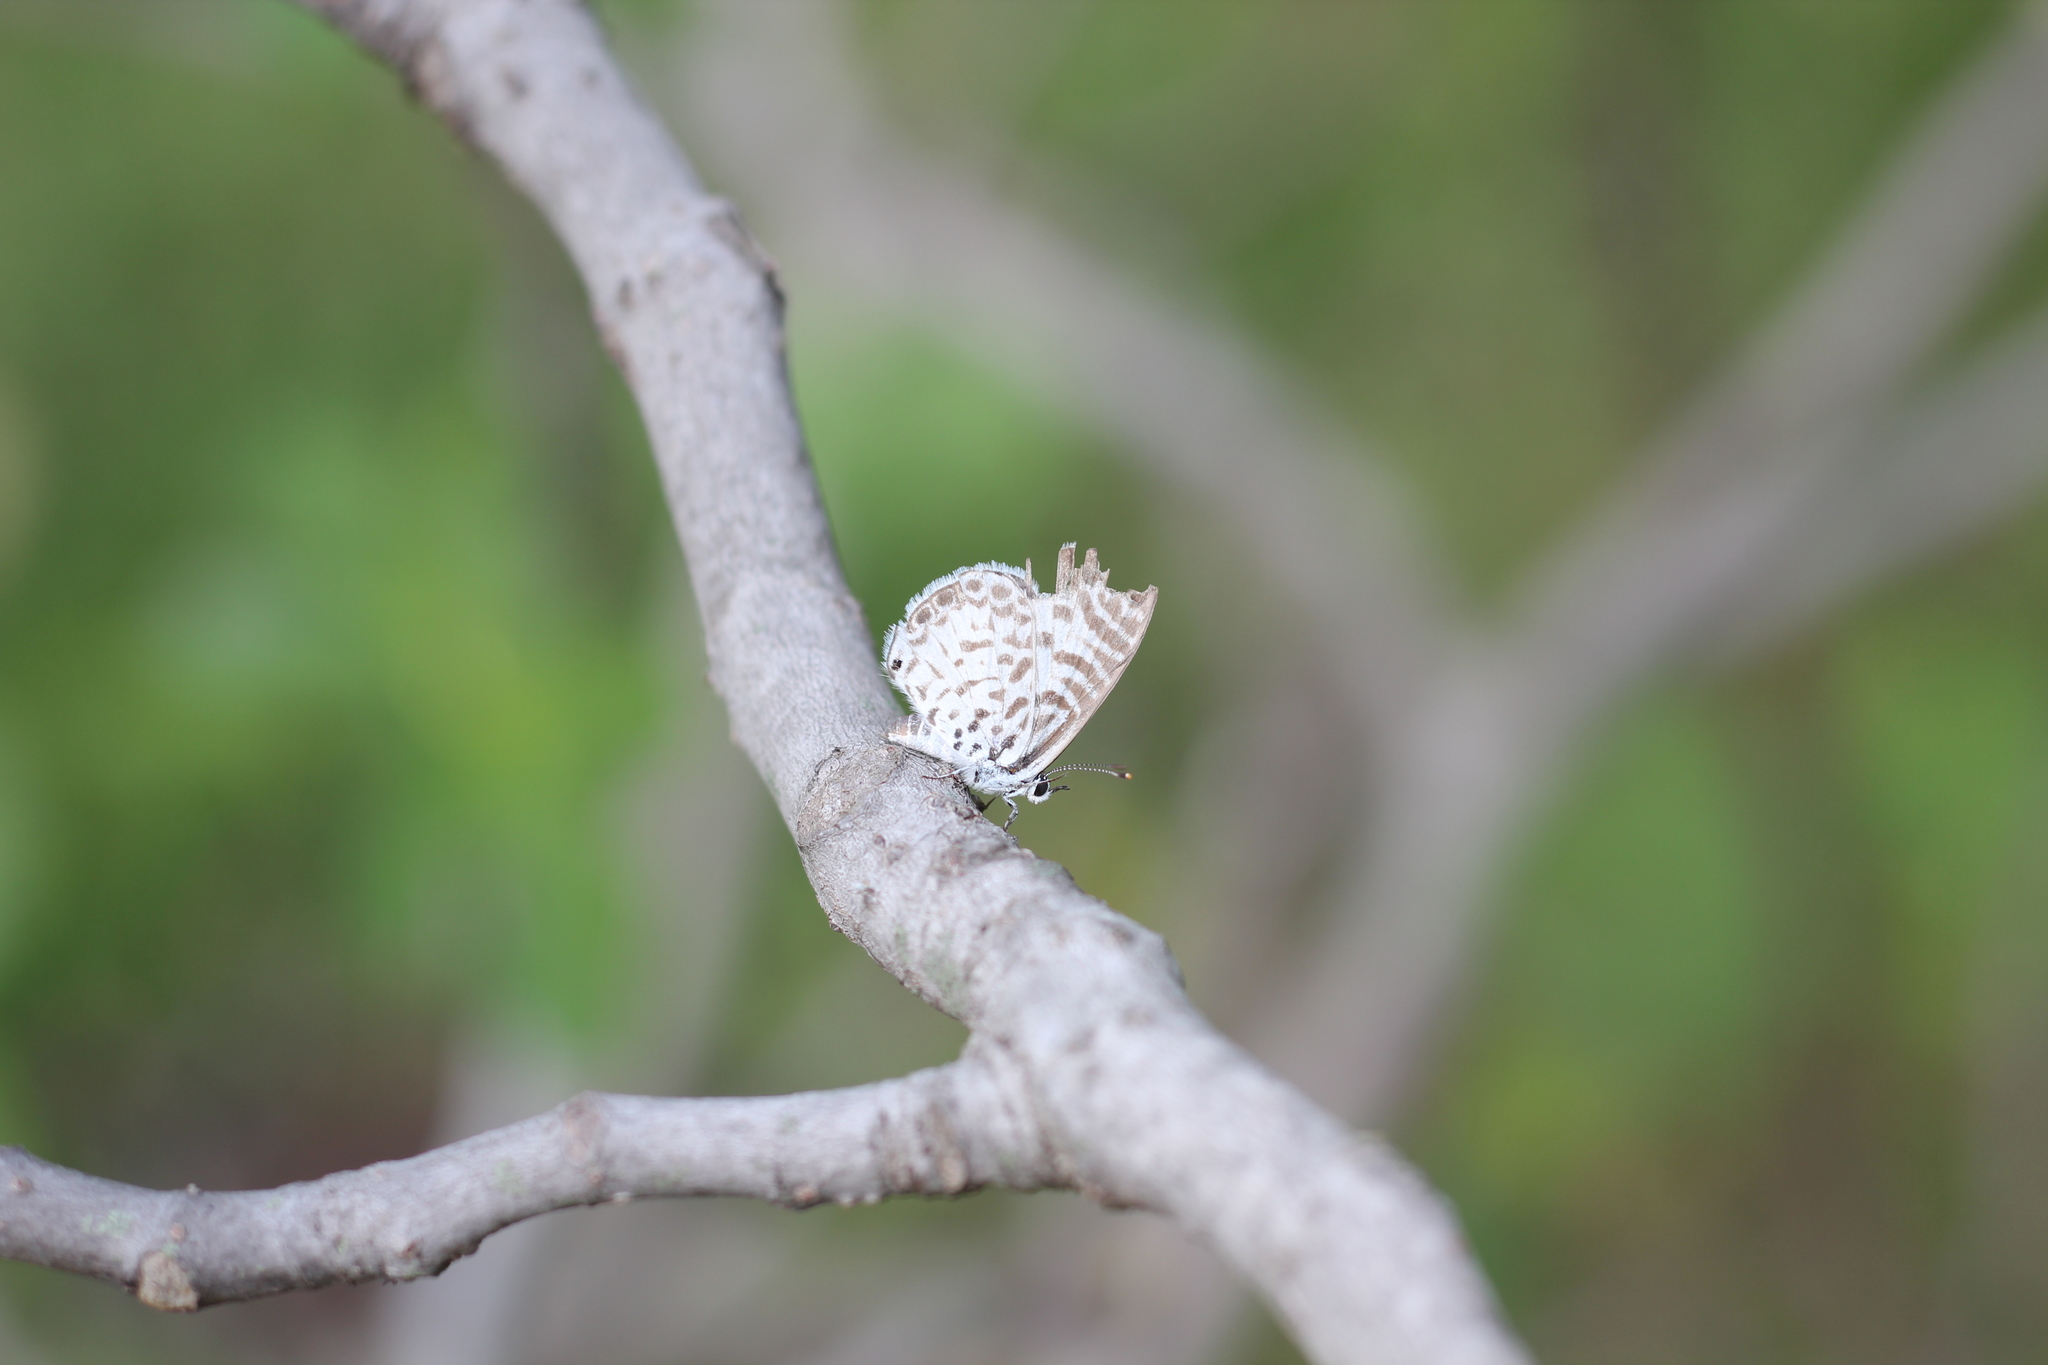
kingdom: Animalia
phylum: Arthropoda
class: Insecta
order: Lepidoptera
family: Lycaenidae
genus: Leptotes
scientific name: Leptotes cassius
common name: Cassius blue
